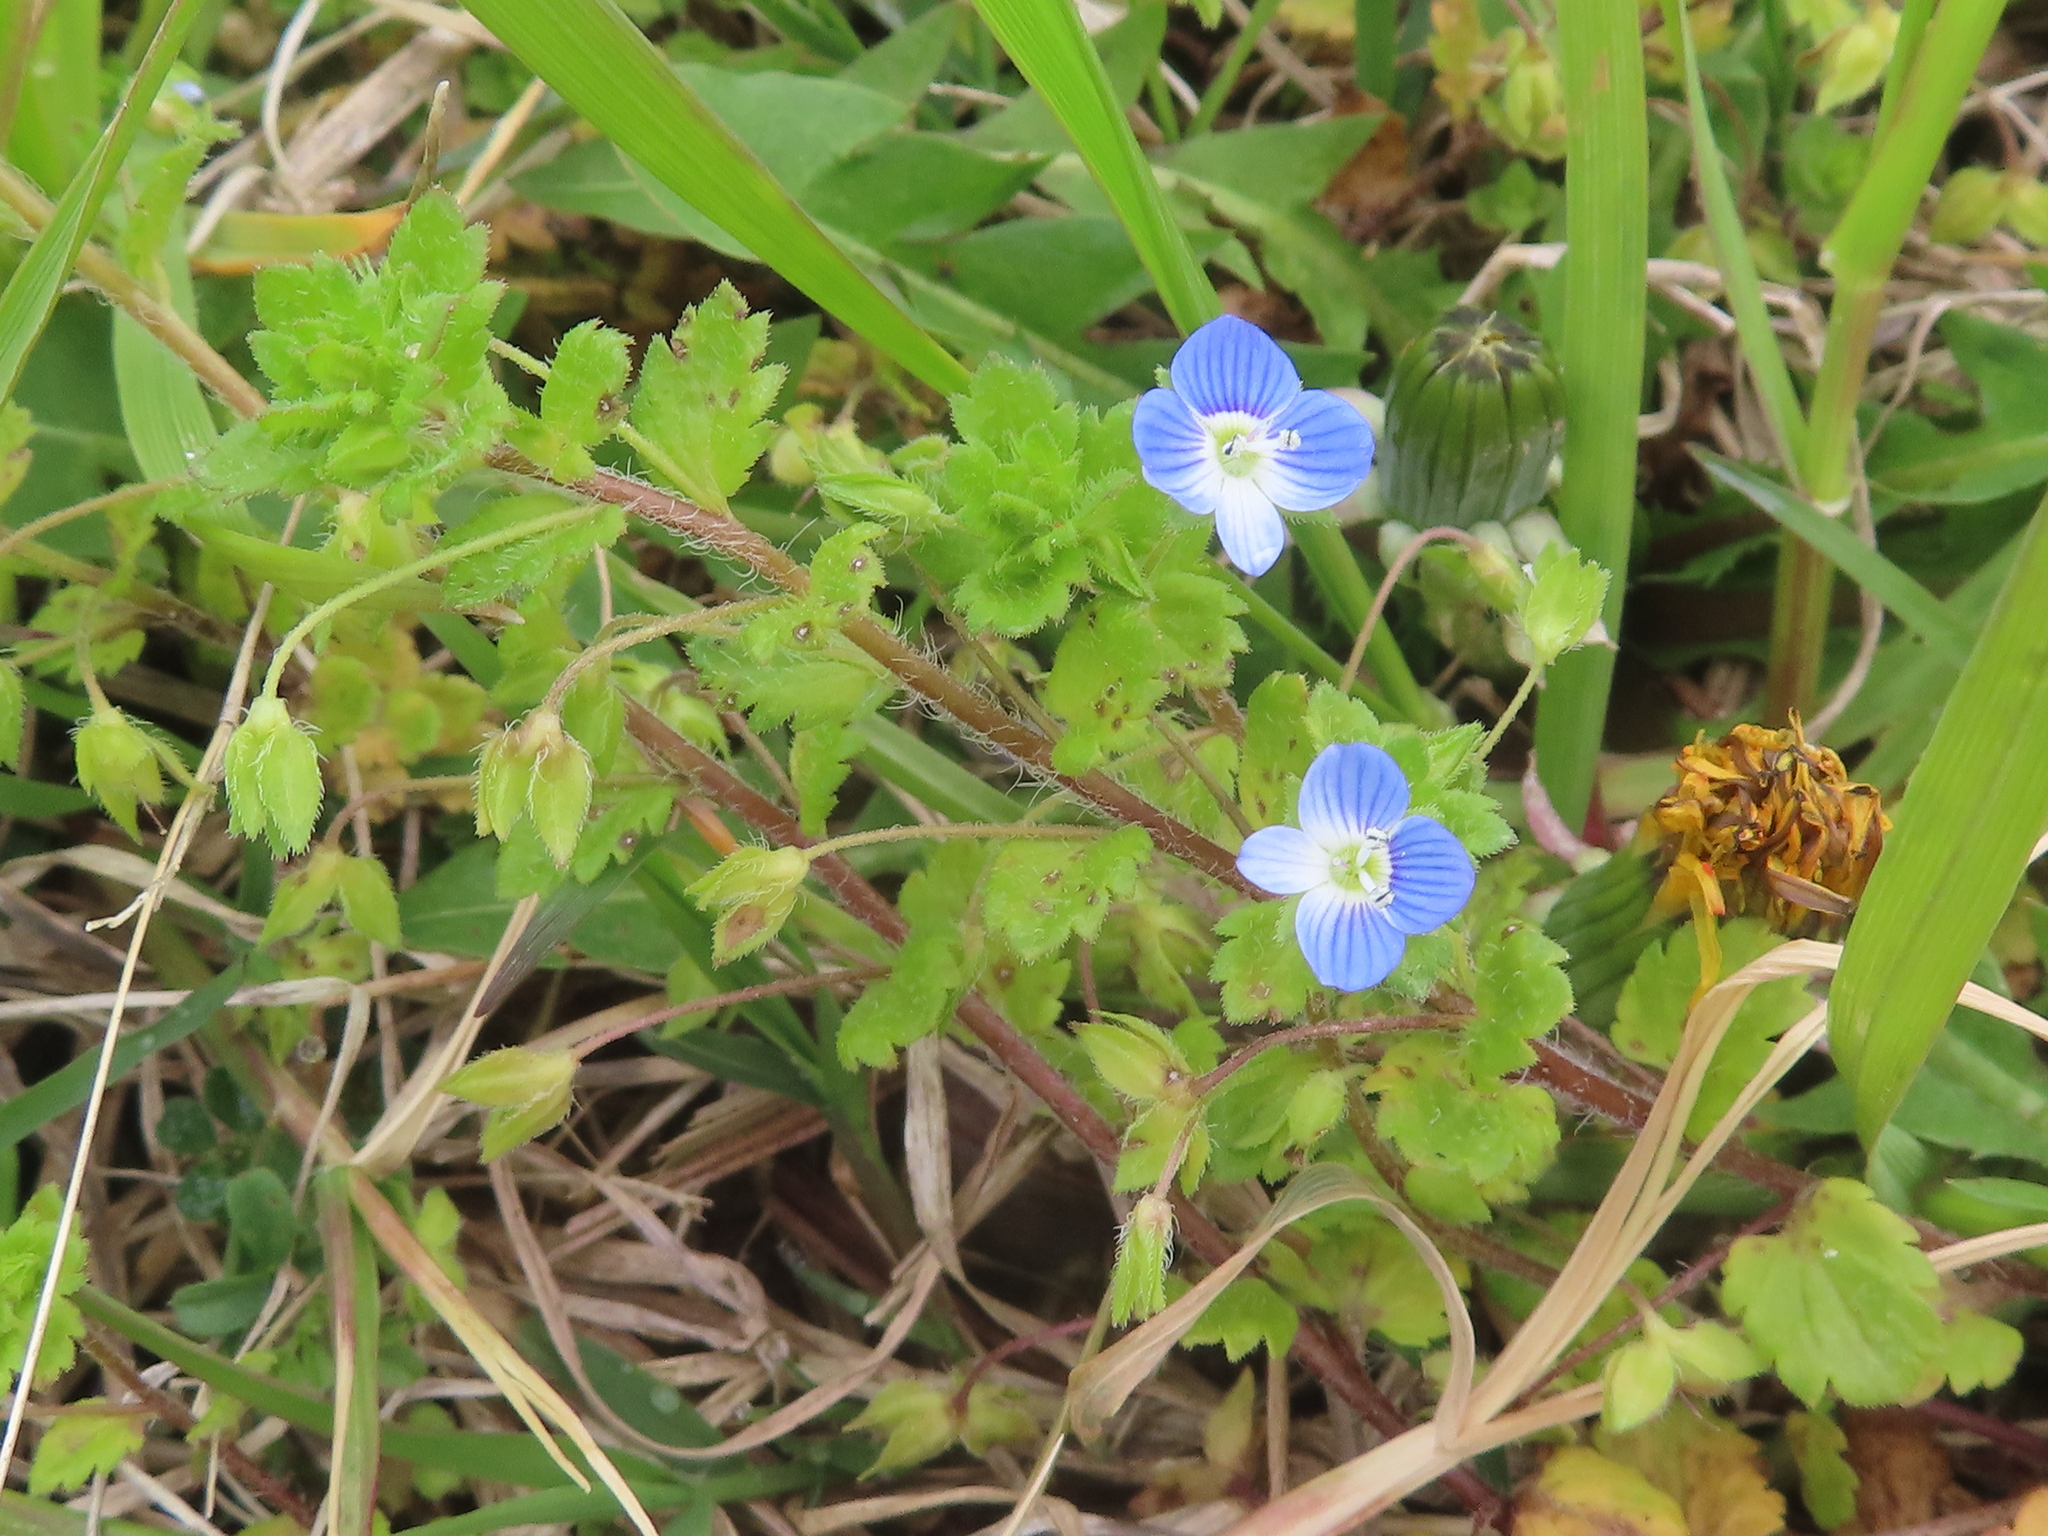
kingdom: Plantae
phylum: Tracheophyta
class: Magnoliopsida
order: Lamiales
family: Plantaginaceae
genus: Veronica
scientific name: Veronica persica
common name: Common field-speedwell
